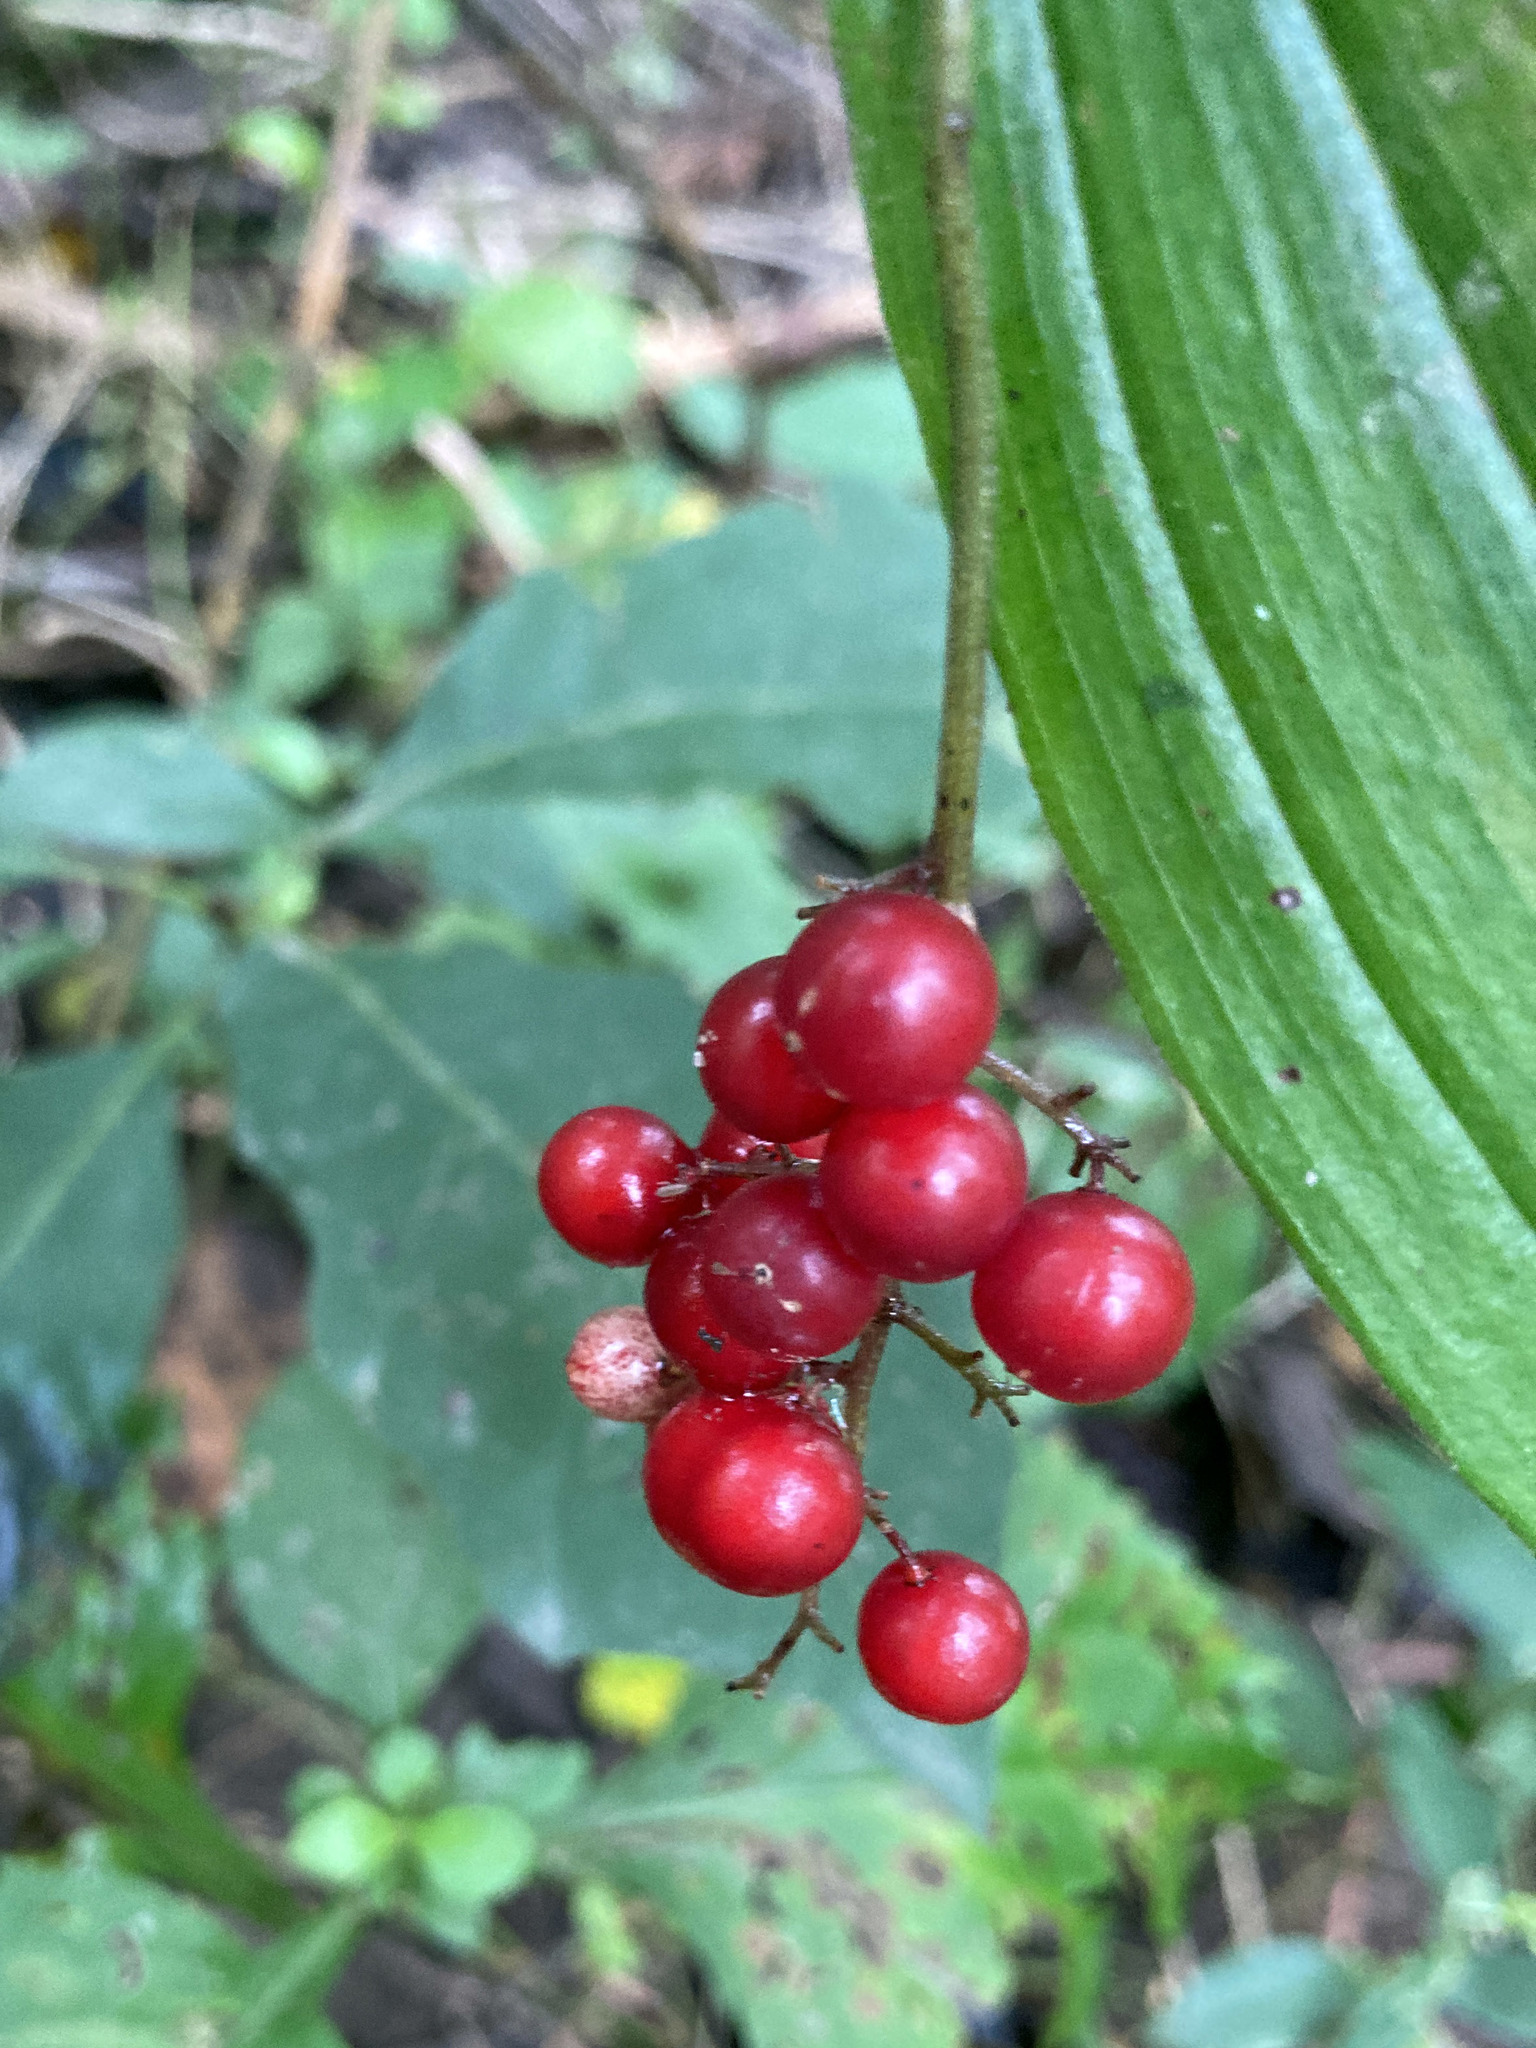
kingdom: Plantae
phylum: Tracheophyta
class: Liliopsida
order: Asparagales
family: Asparagaceae
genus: Maianthemum
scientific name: Maianthemum racemosum
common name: False spikenard
